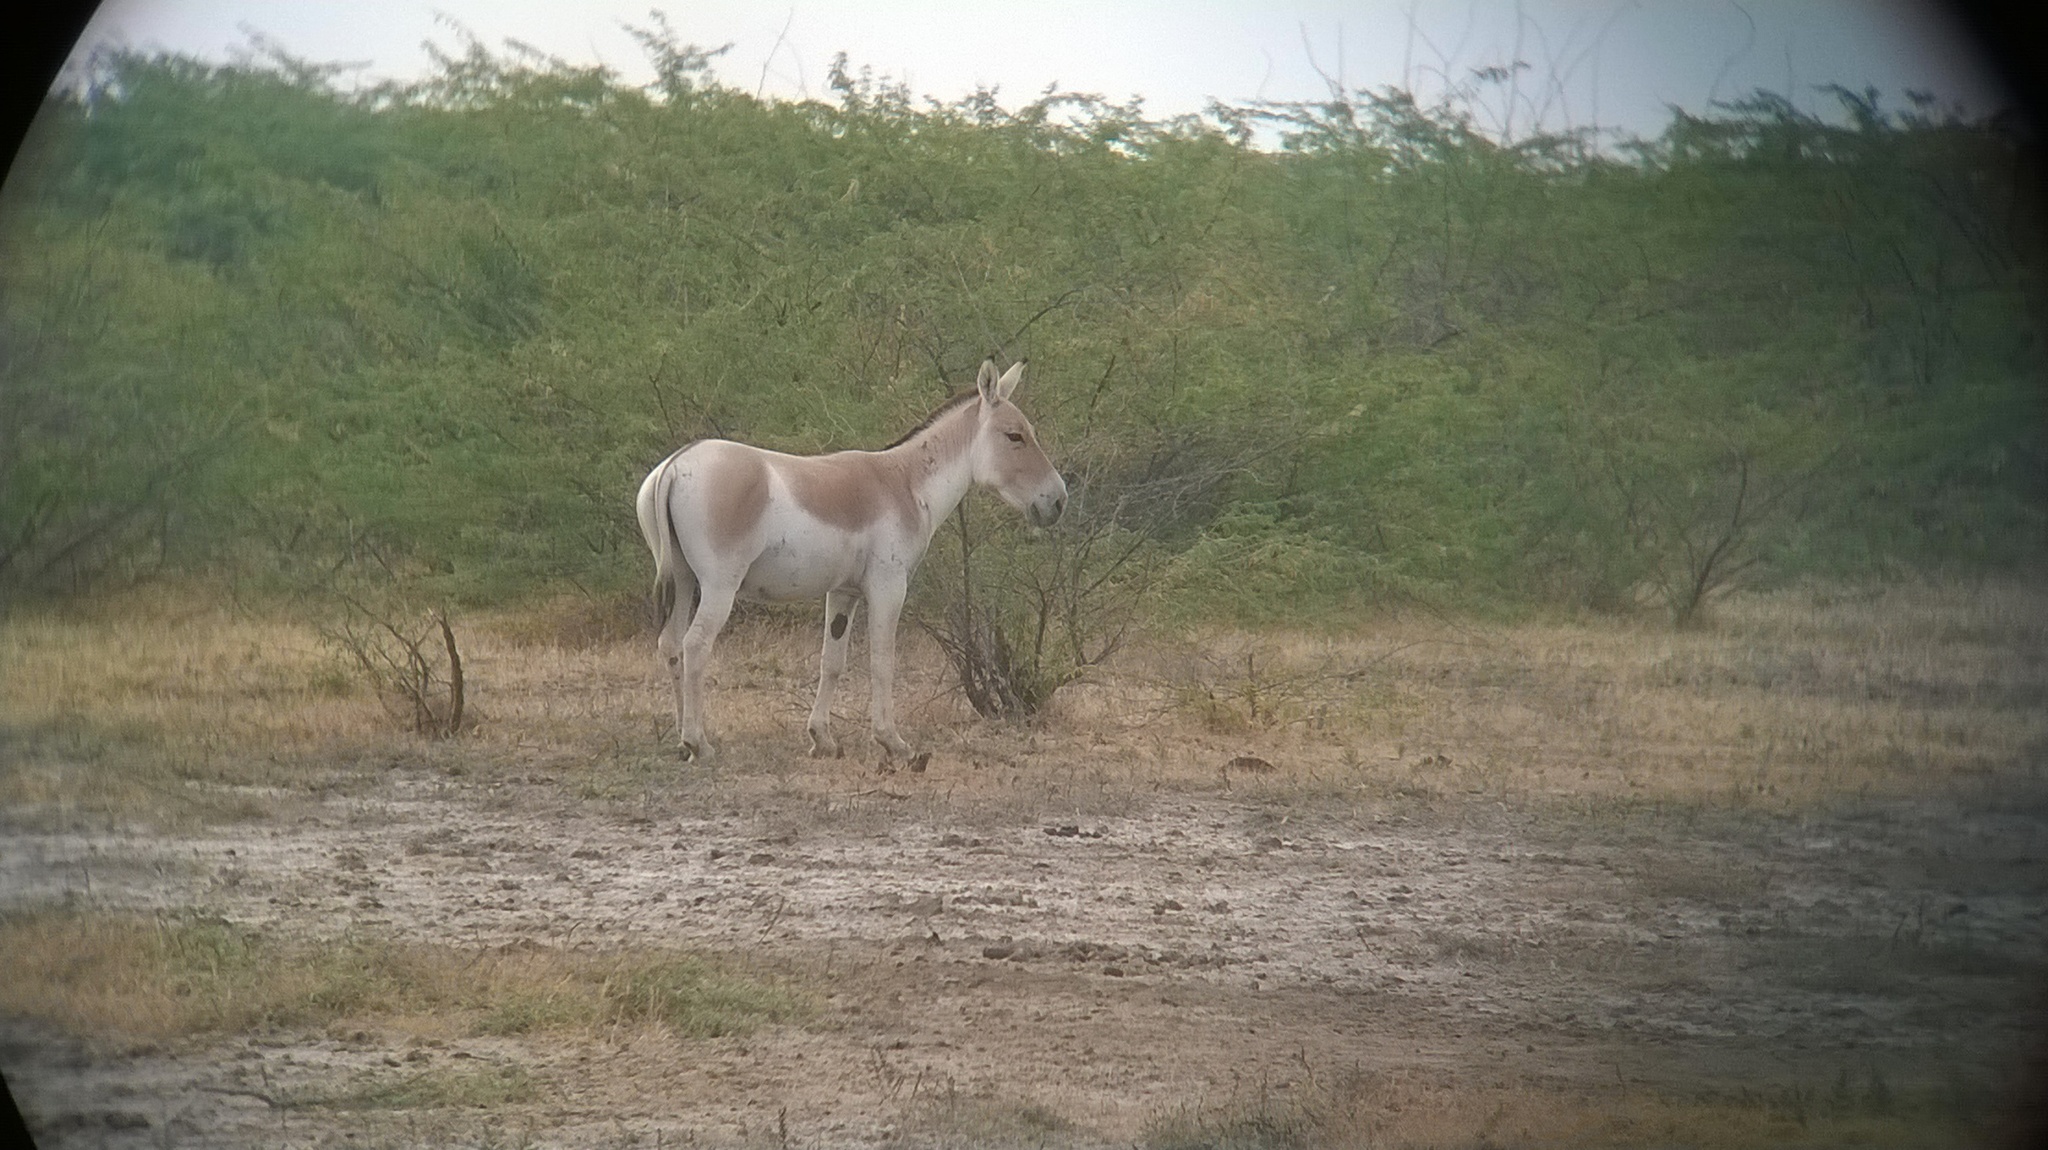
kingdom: Animalia
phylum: Chordata
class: Mammalia
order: Perissodactyla
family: Equidae
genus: Equus
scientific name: Equus khur
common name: Indian wild ass
